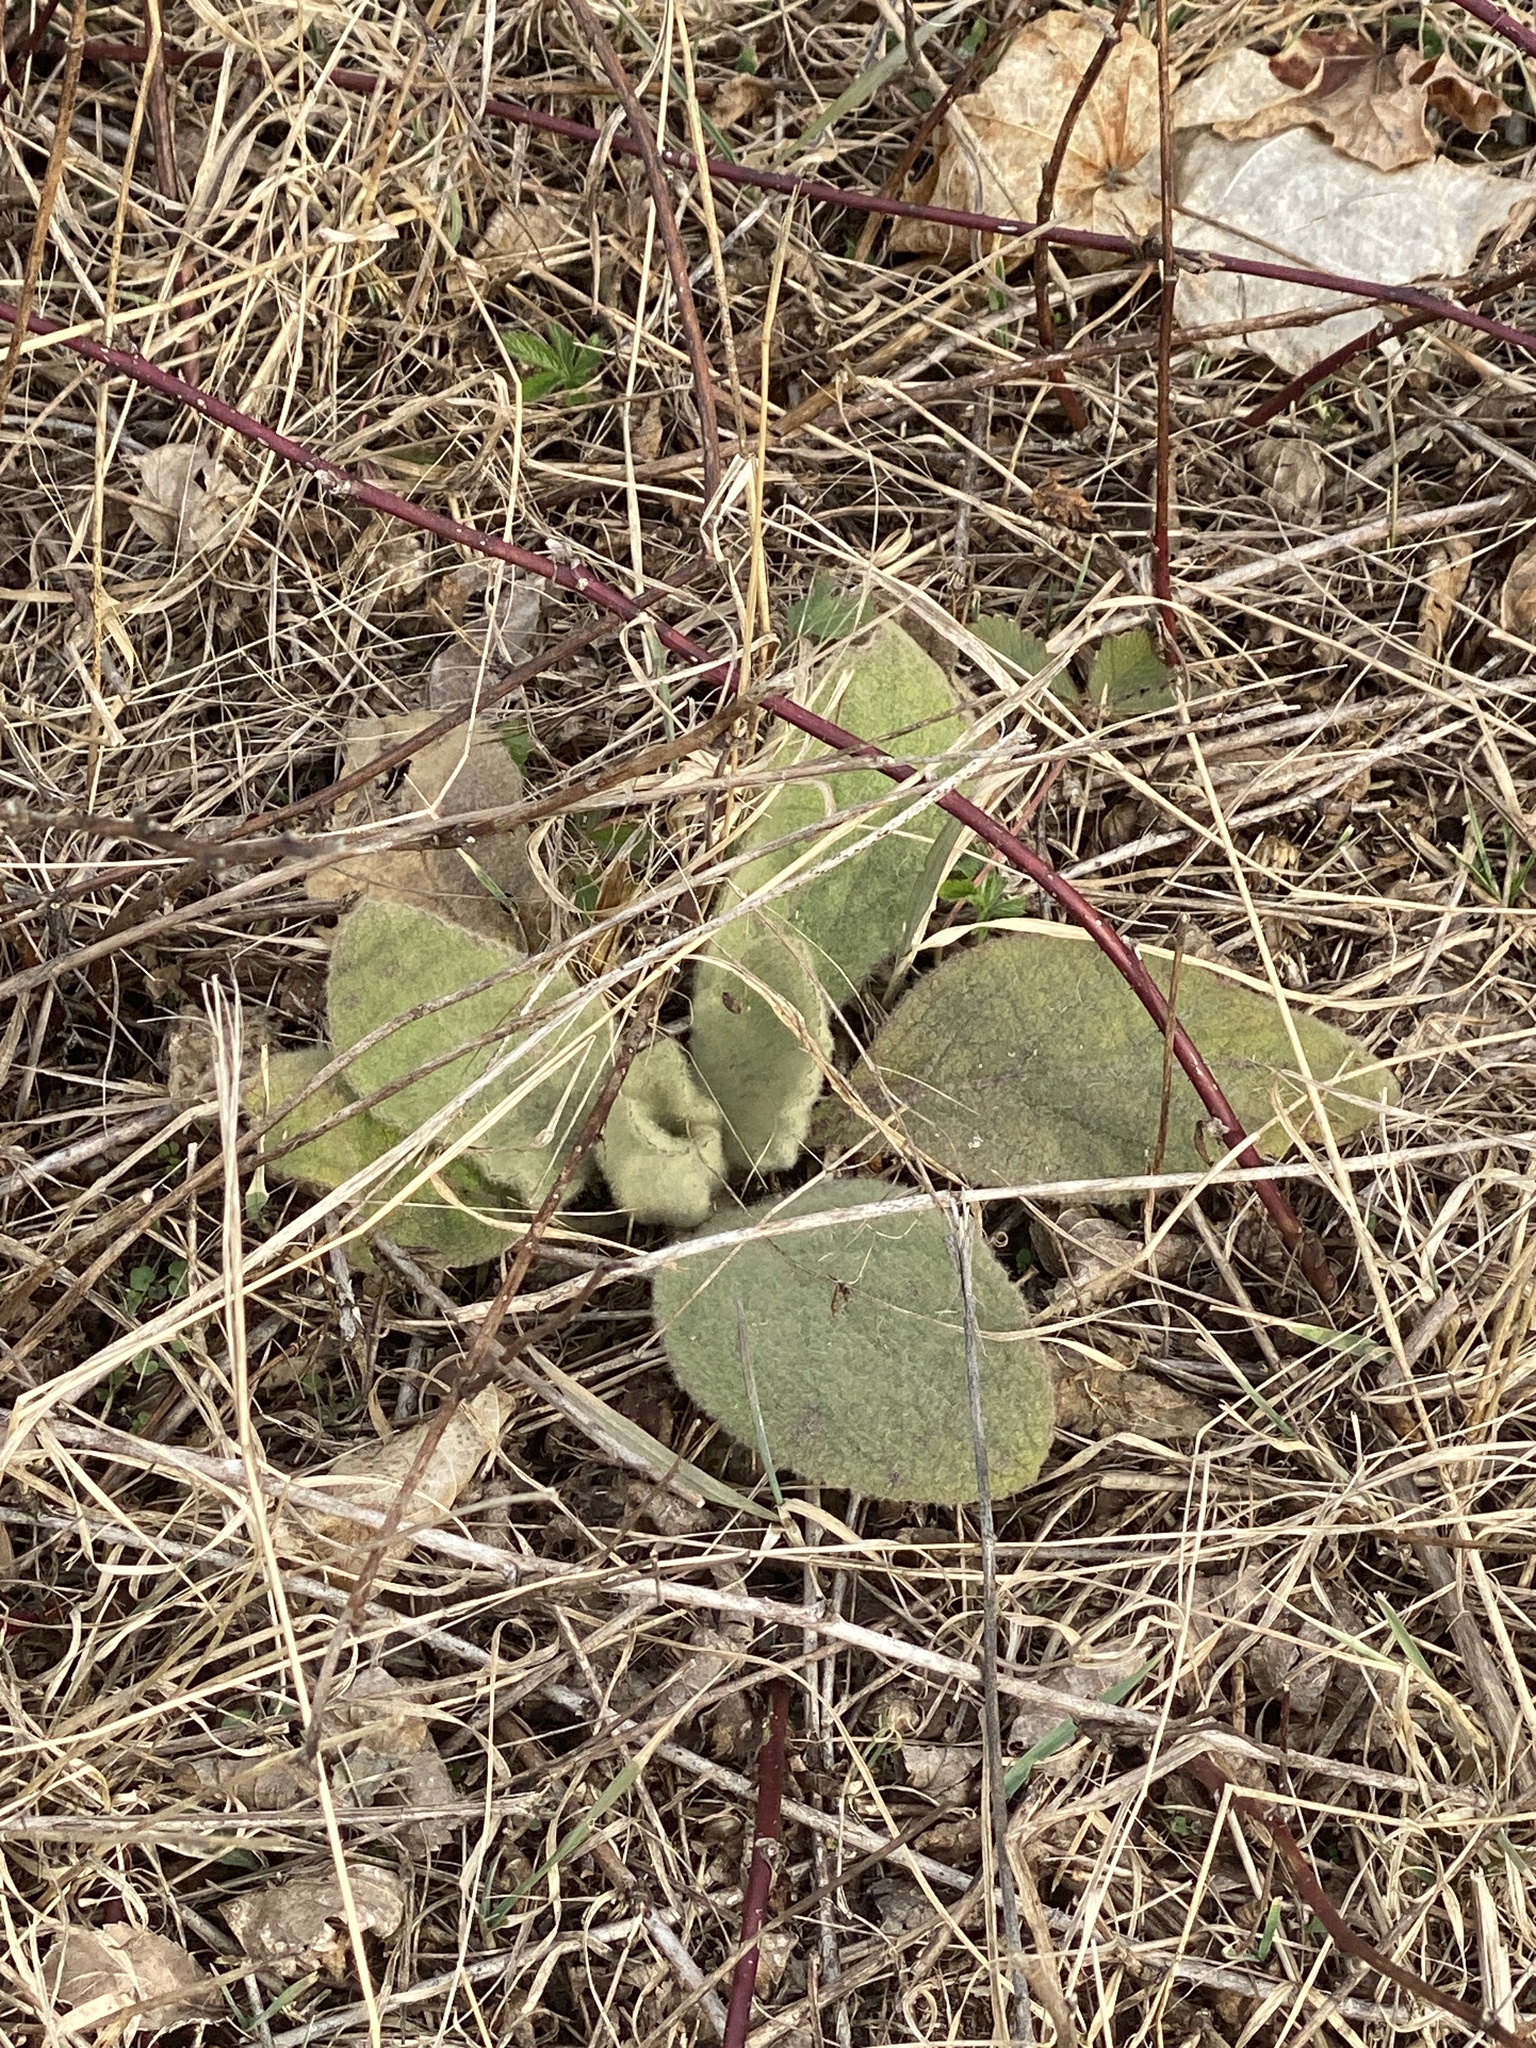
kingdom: Plantae
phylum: Tracheophyta
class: Magnoliopsida
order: Lamiales
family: Scrophulariaceae
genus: Verbascum
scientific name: Verbascum thapsus
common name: Common mullein
